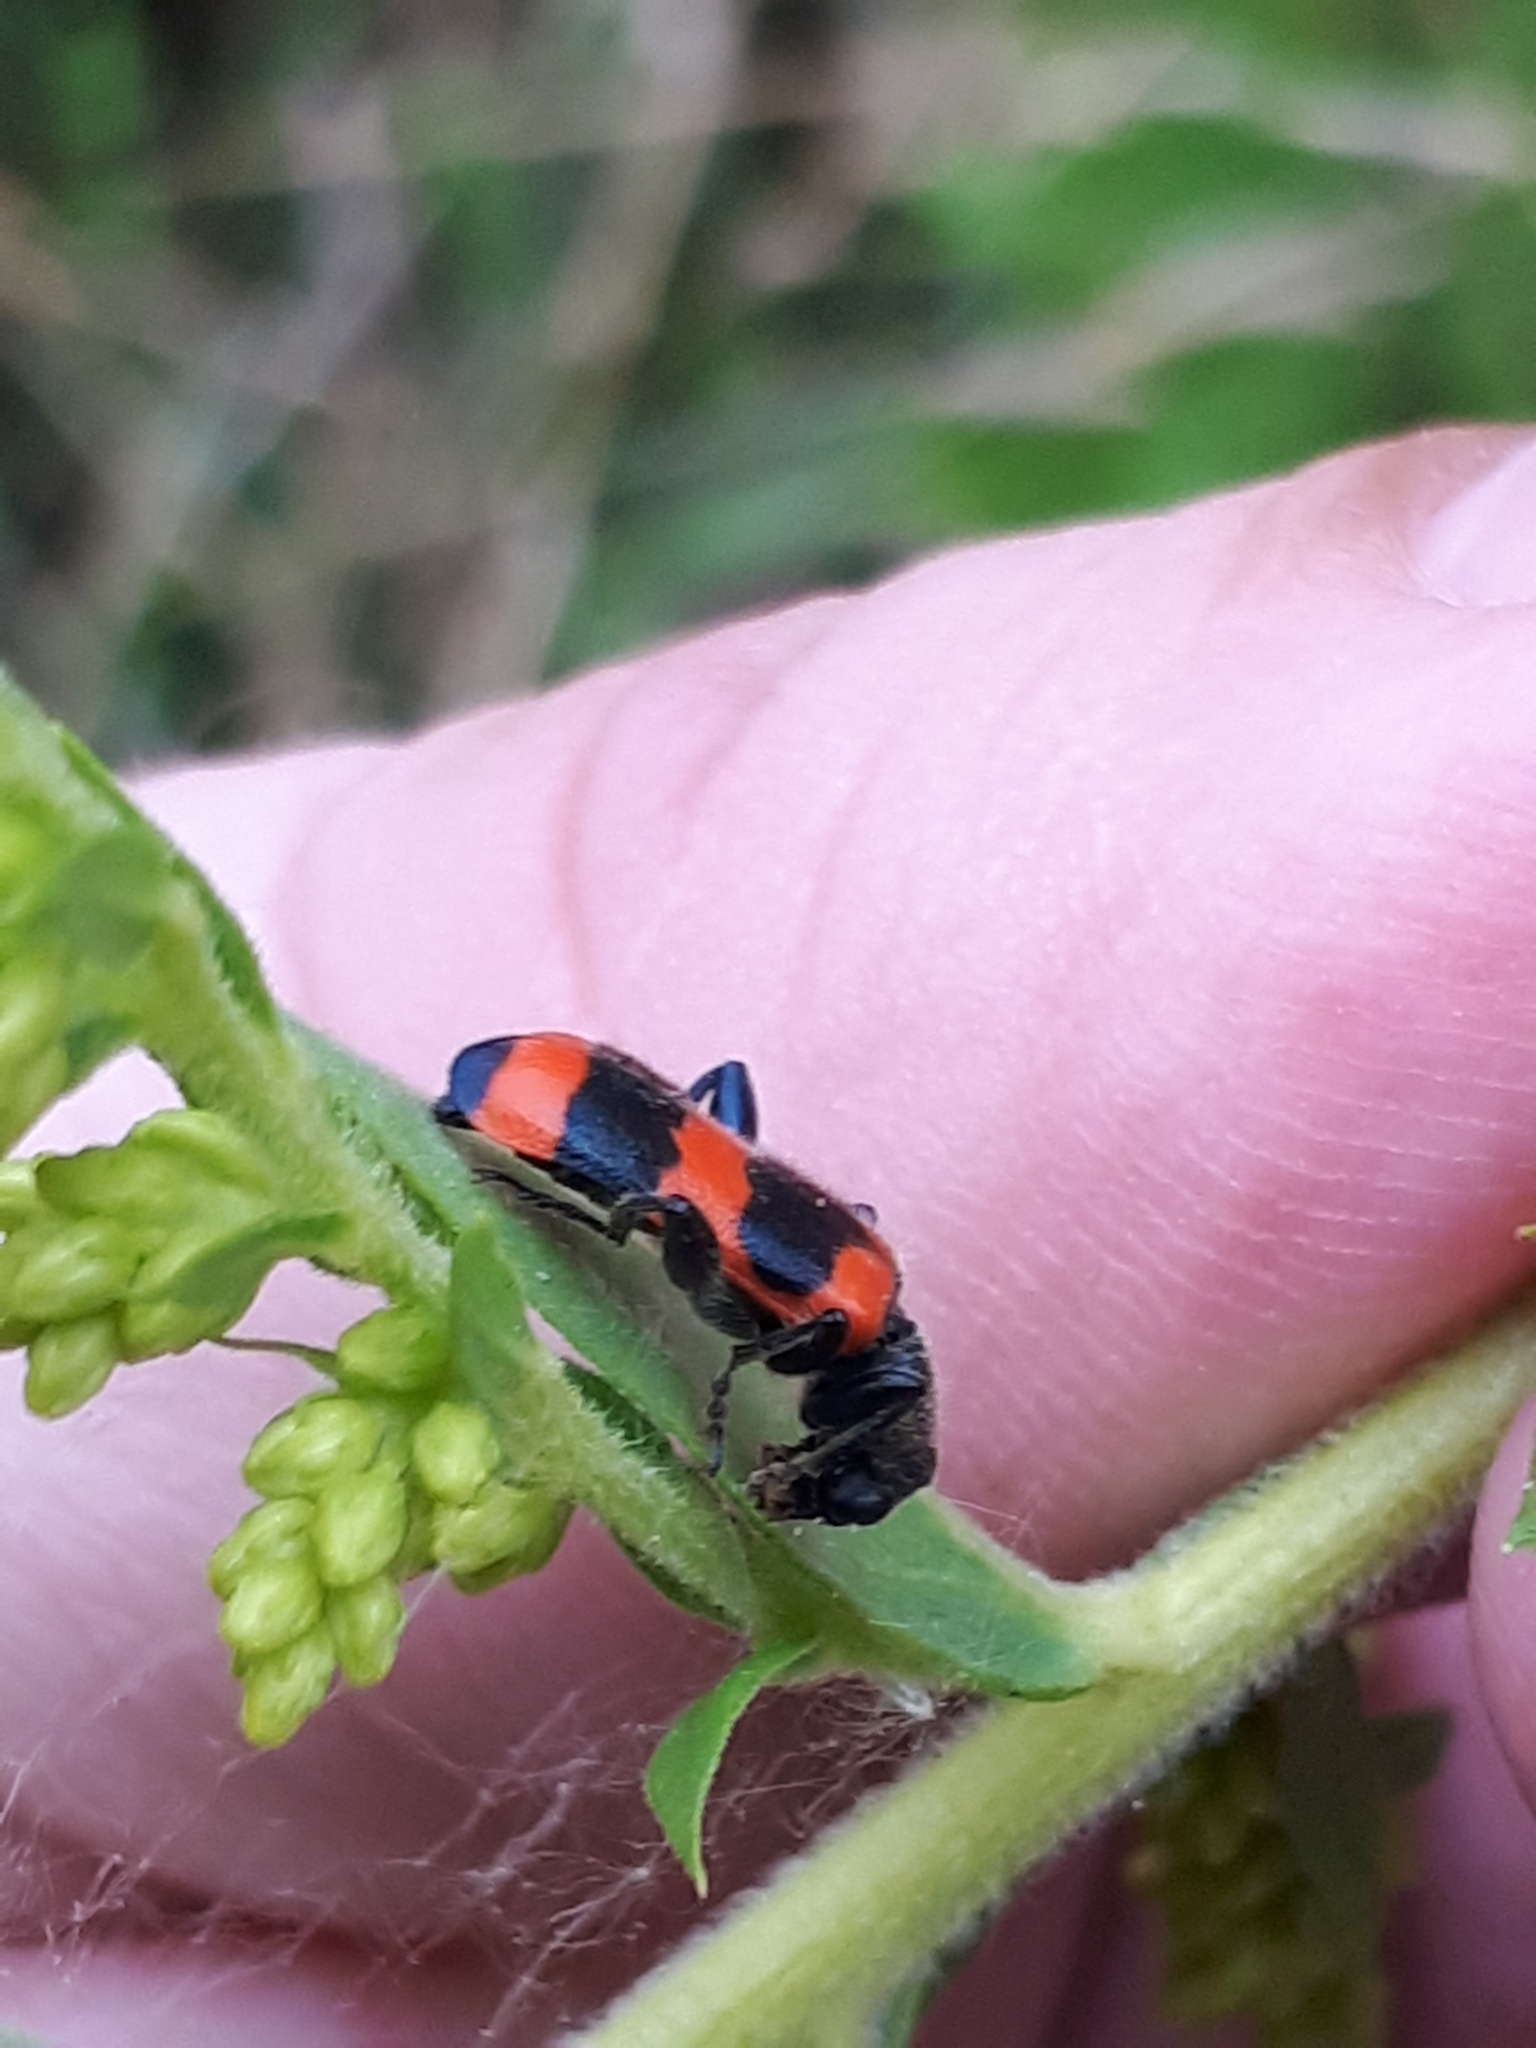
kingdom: Animalia
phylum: Arthropoda
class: Insecta
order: Coleoptera
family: Cleridae
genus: Trichodes
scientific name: Trichodes apiarius
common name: Bee-eating beetle
